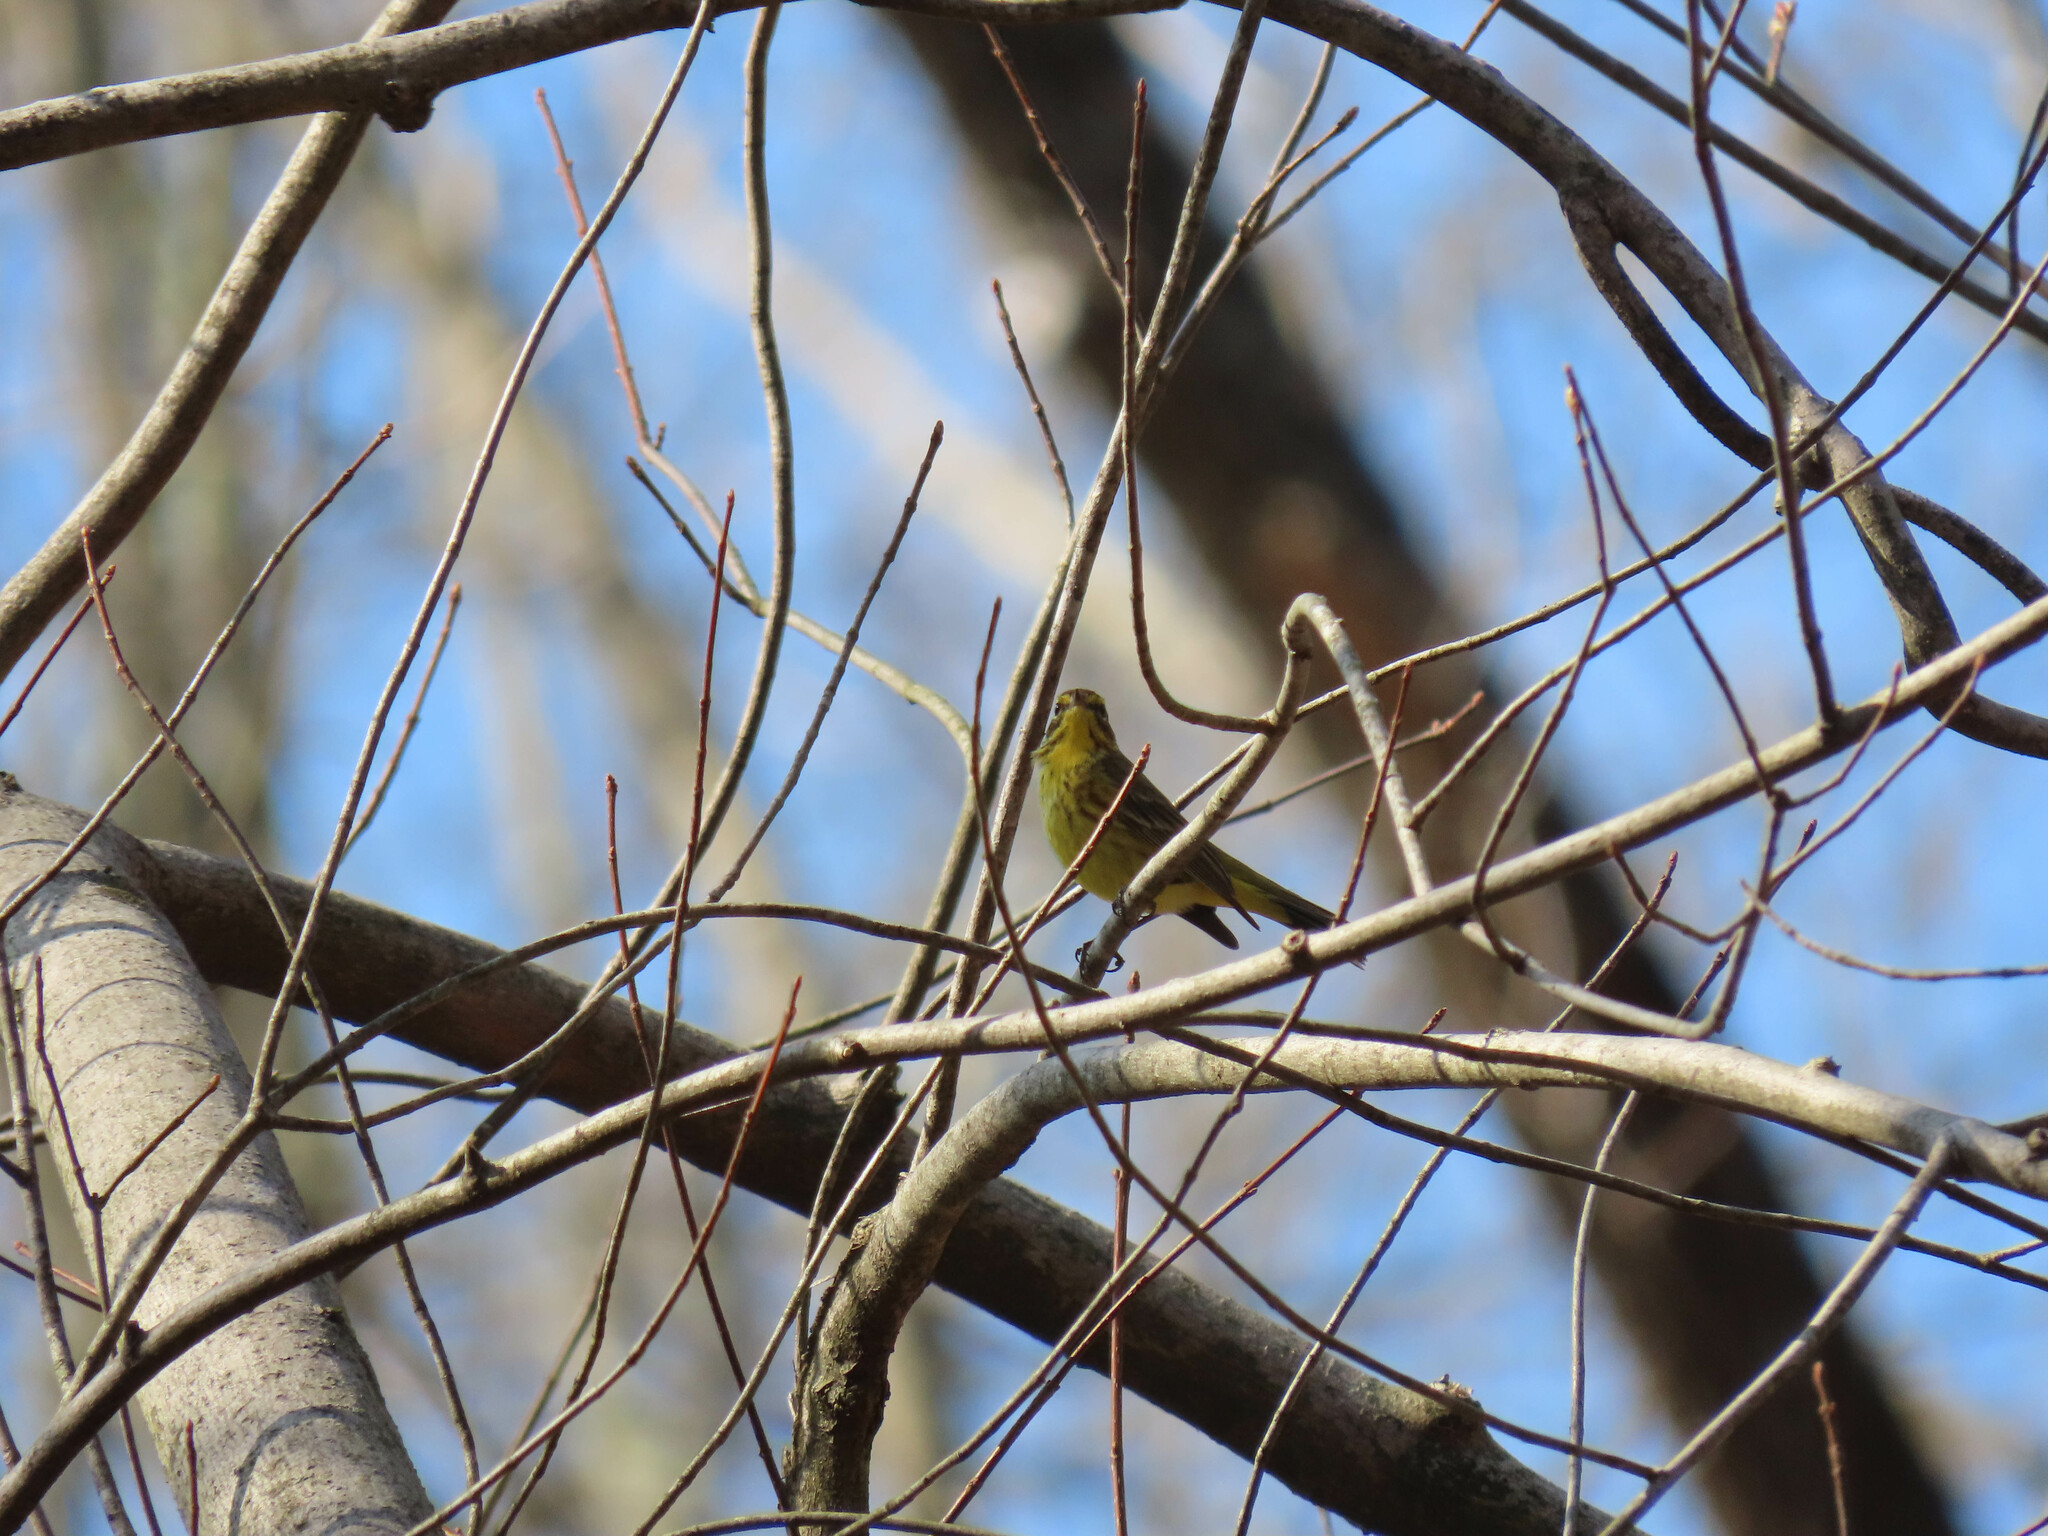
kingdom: Animalia
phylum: Chordata
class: Aves
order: Passeriformes
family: Parulidae
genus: Setophaga
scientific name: Setophaga palmarum
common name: Palm warbler
